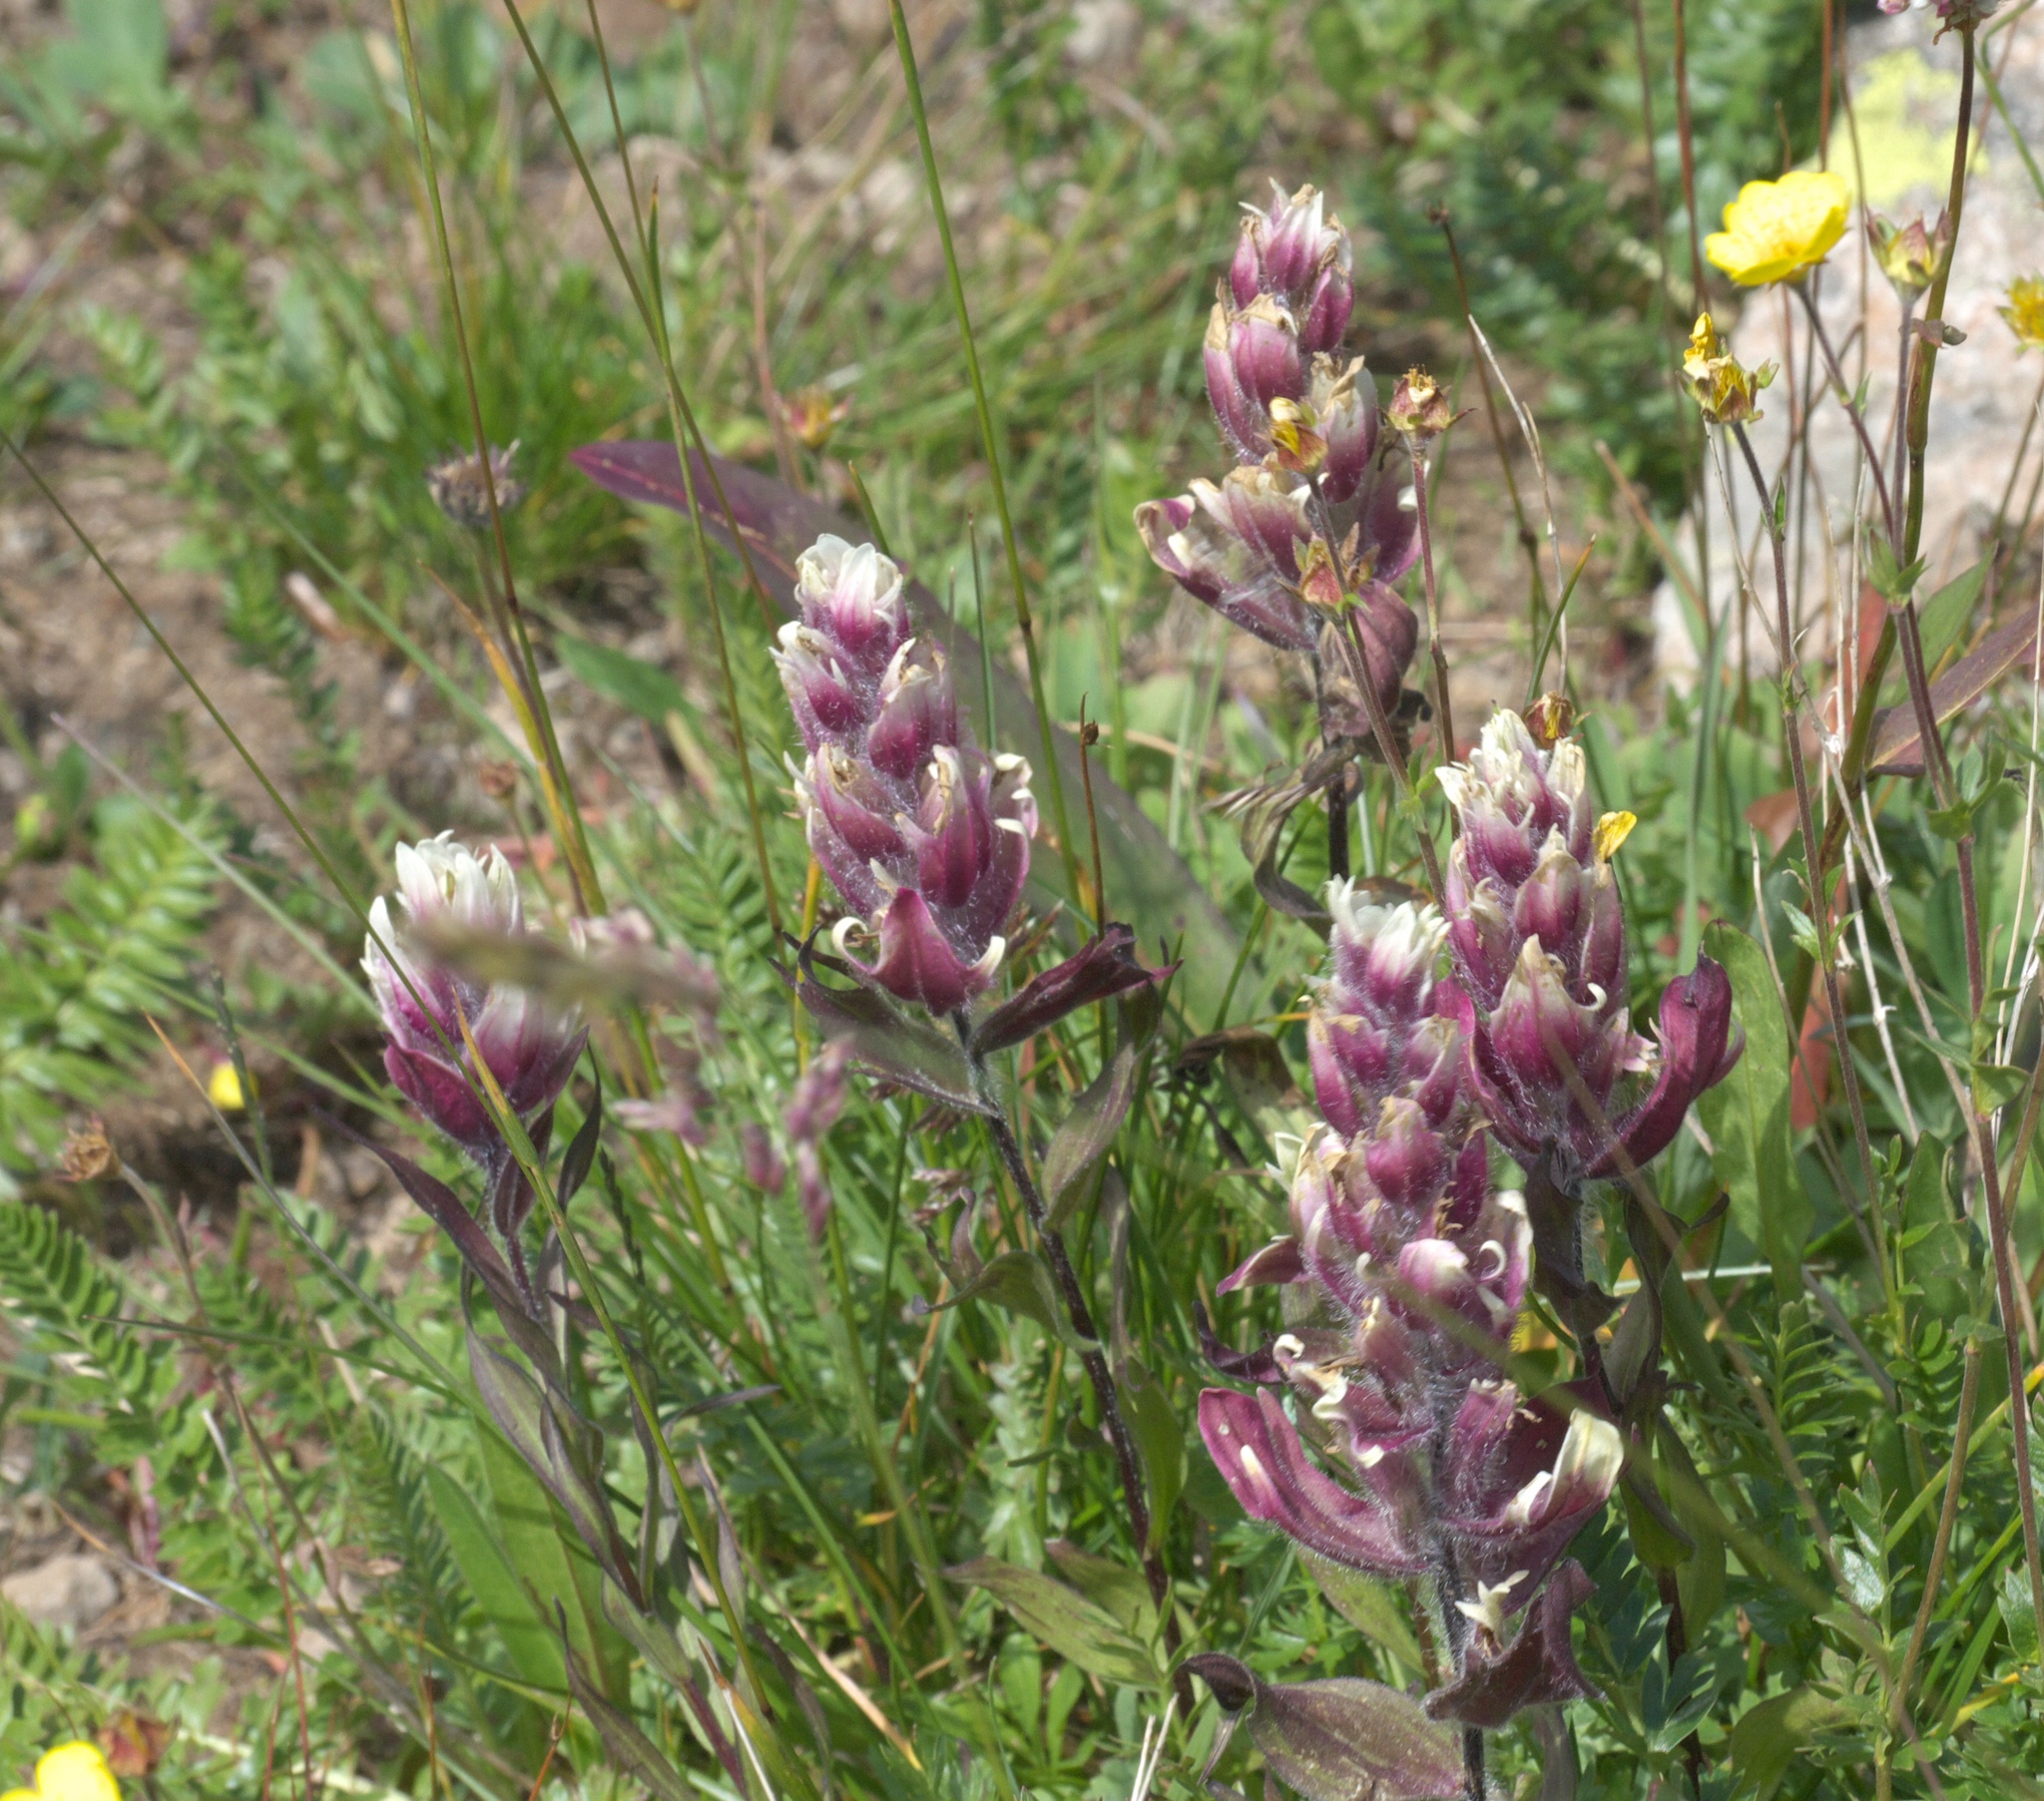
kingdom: Plantae
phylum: Tracheophyta
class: Magnoliopsida
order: Lamiales
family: Orobanchaceae
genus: Castilleja
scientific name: Castilleja rhexifolia
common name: Rocky mountain paintbrush
